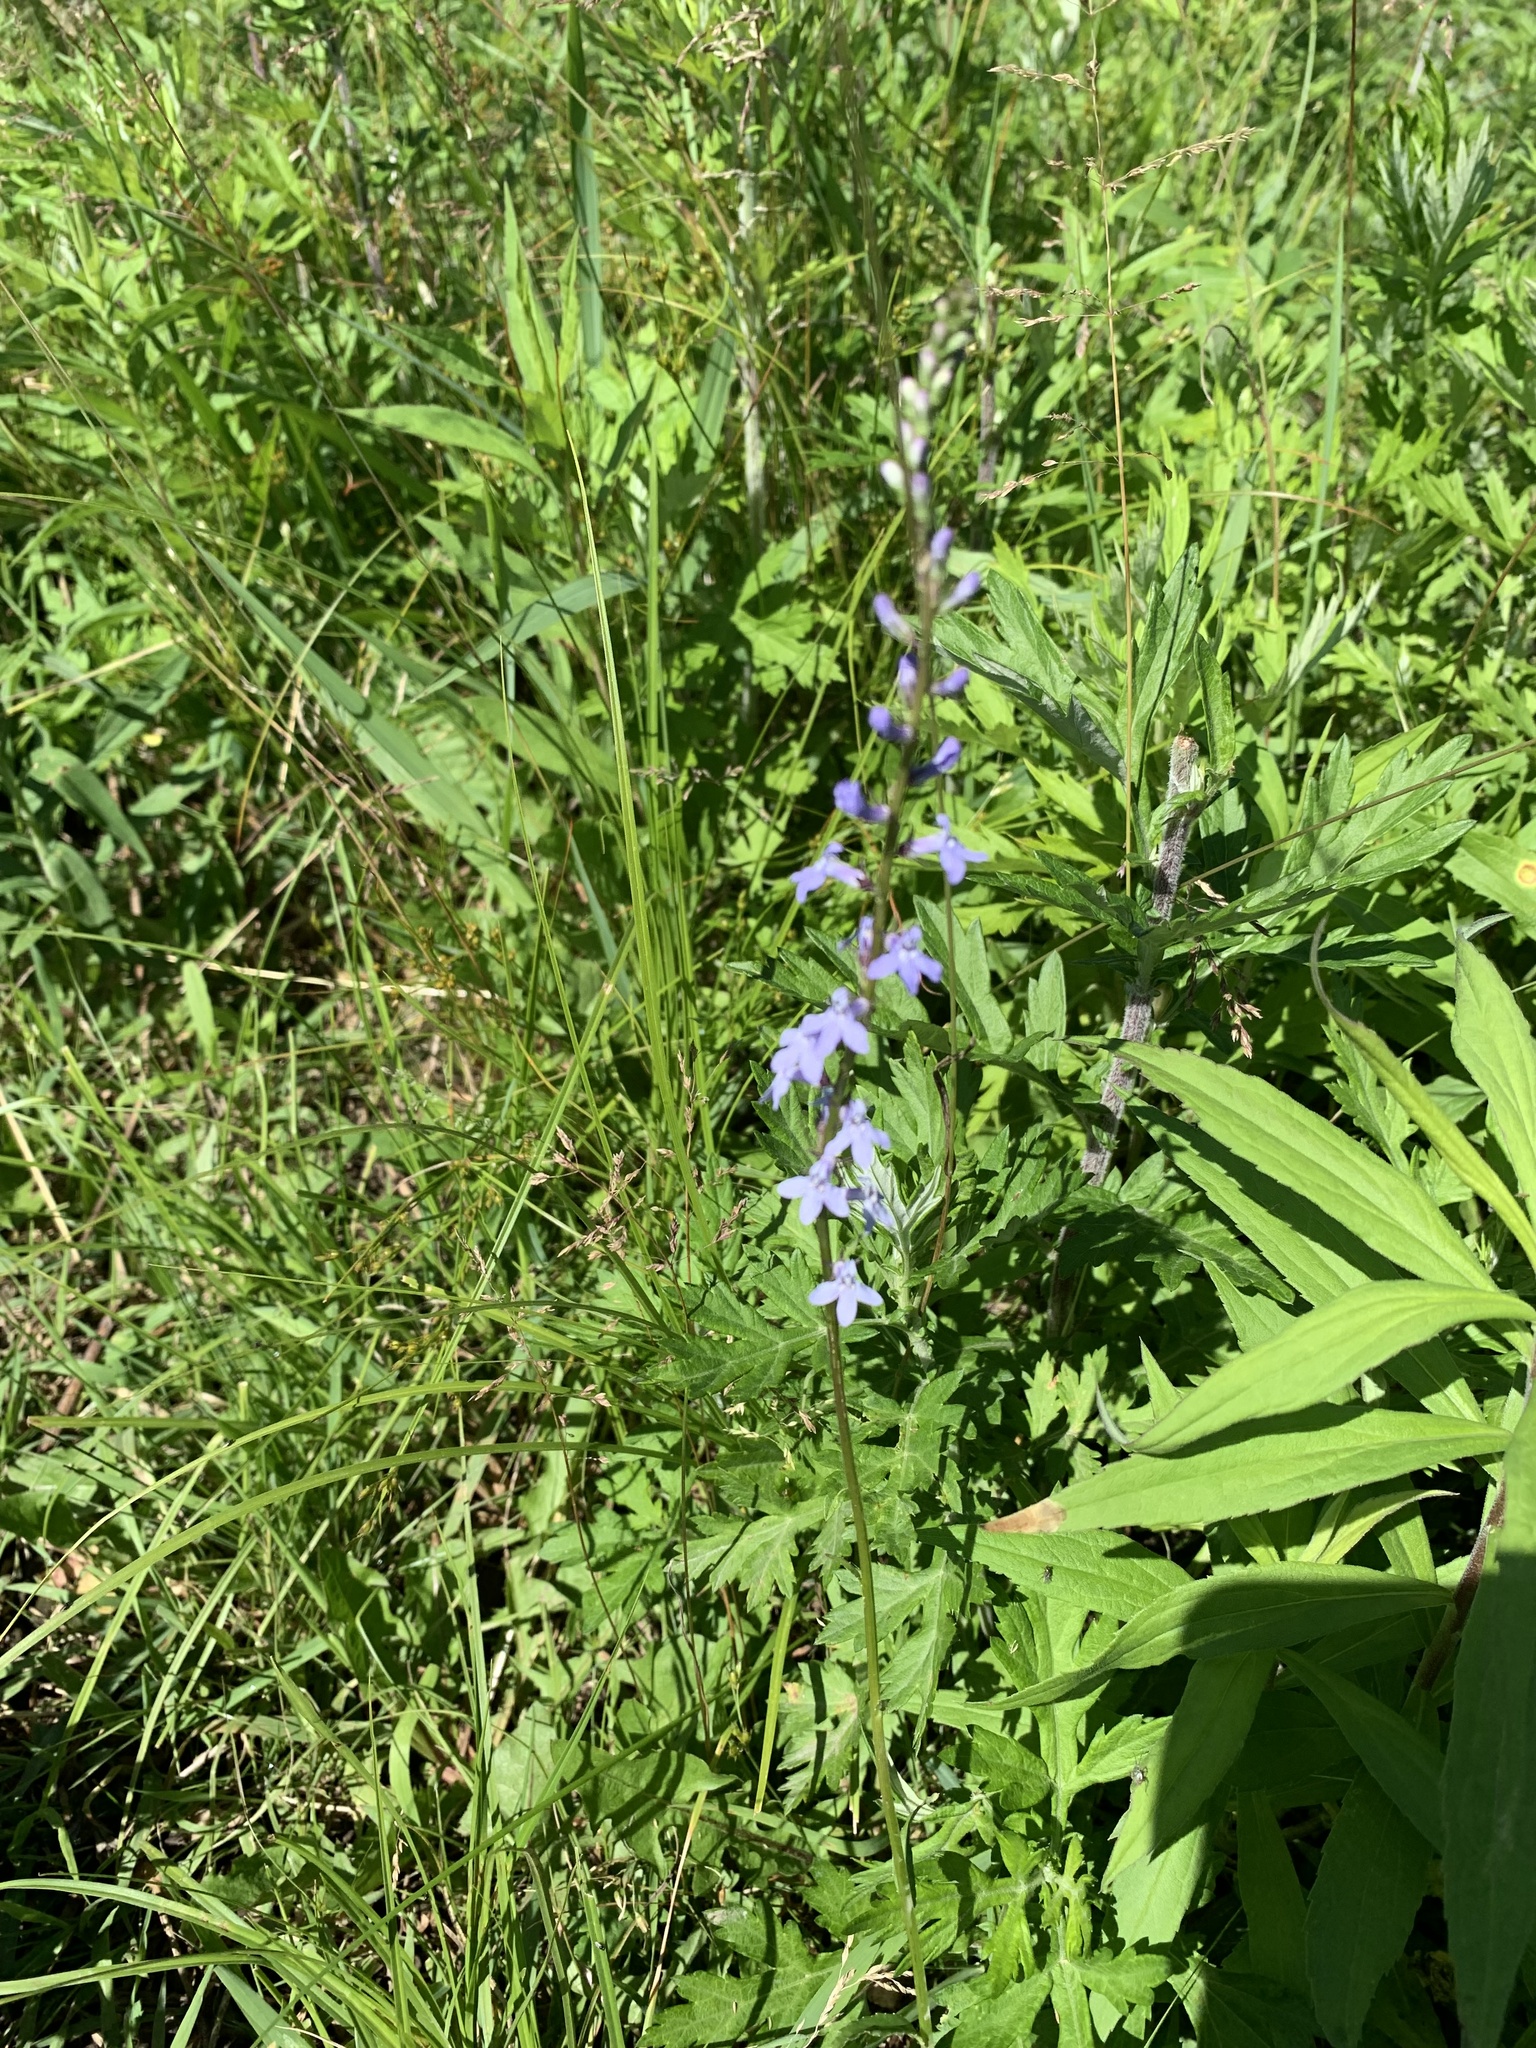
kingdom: Plantae
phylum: Tracheophyta
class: Magnoliopsida
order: Asterales
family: Campanulaceae
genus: Lobelia
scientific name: Lobelia spicata
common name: Pale-spike lobelia
